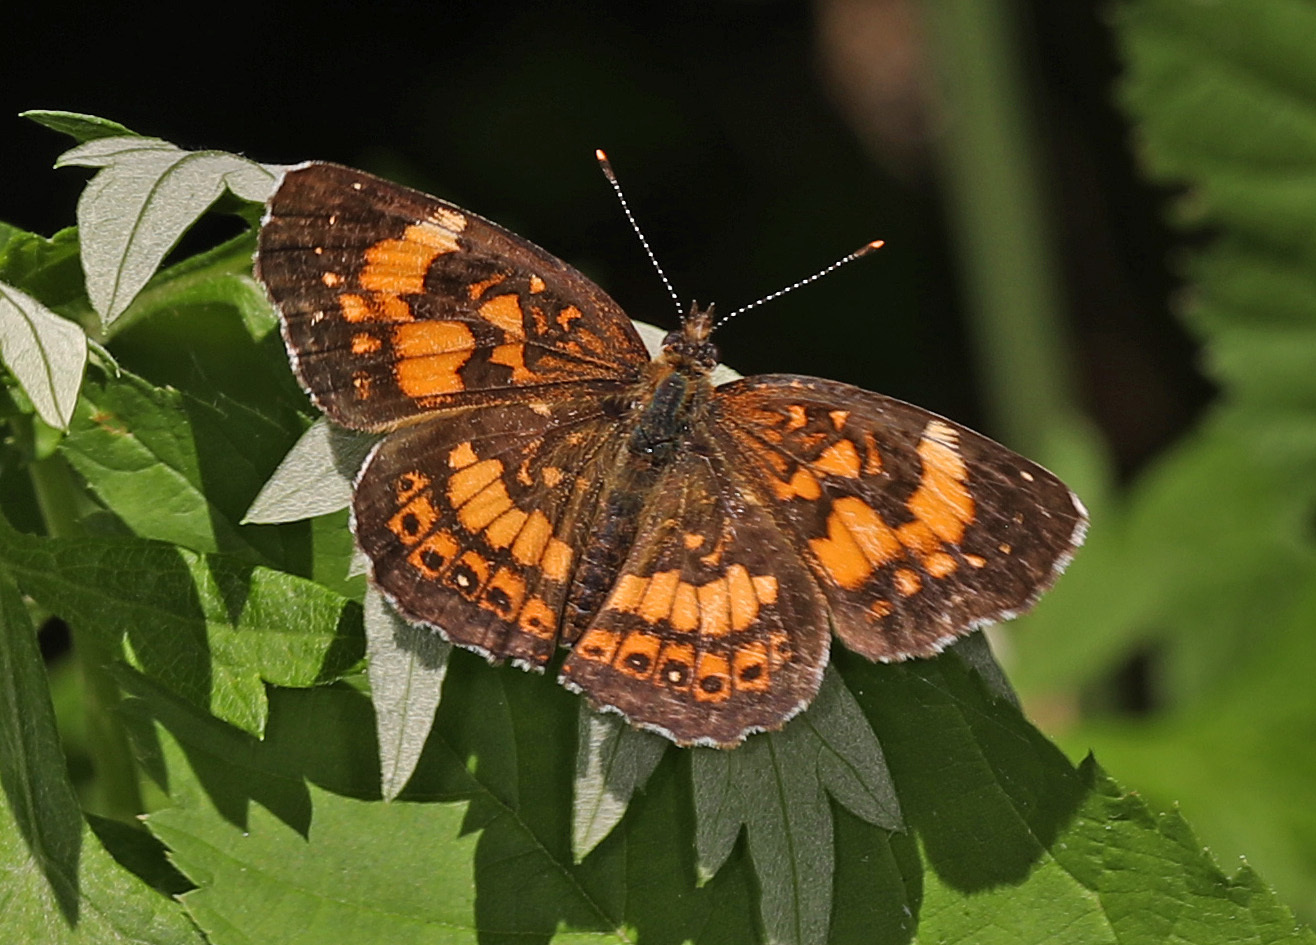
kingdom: Animalia
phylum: Arthropoda
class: Insecta
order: Lepidoptera
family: Nymphalidae
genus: Chlosyne
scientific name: Chlosyne nycteis
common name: Silvery checkerspot
